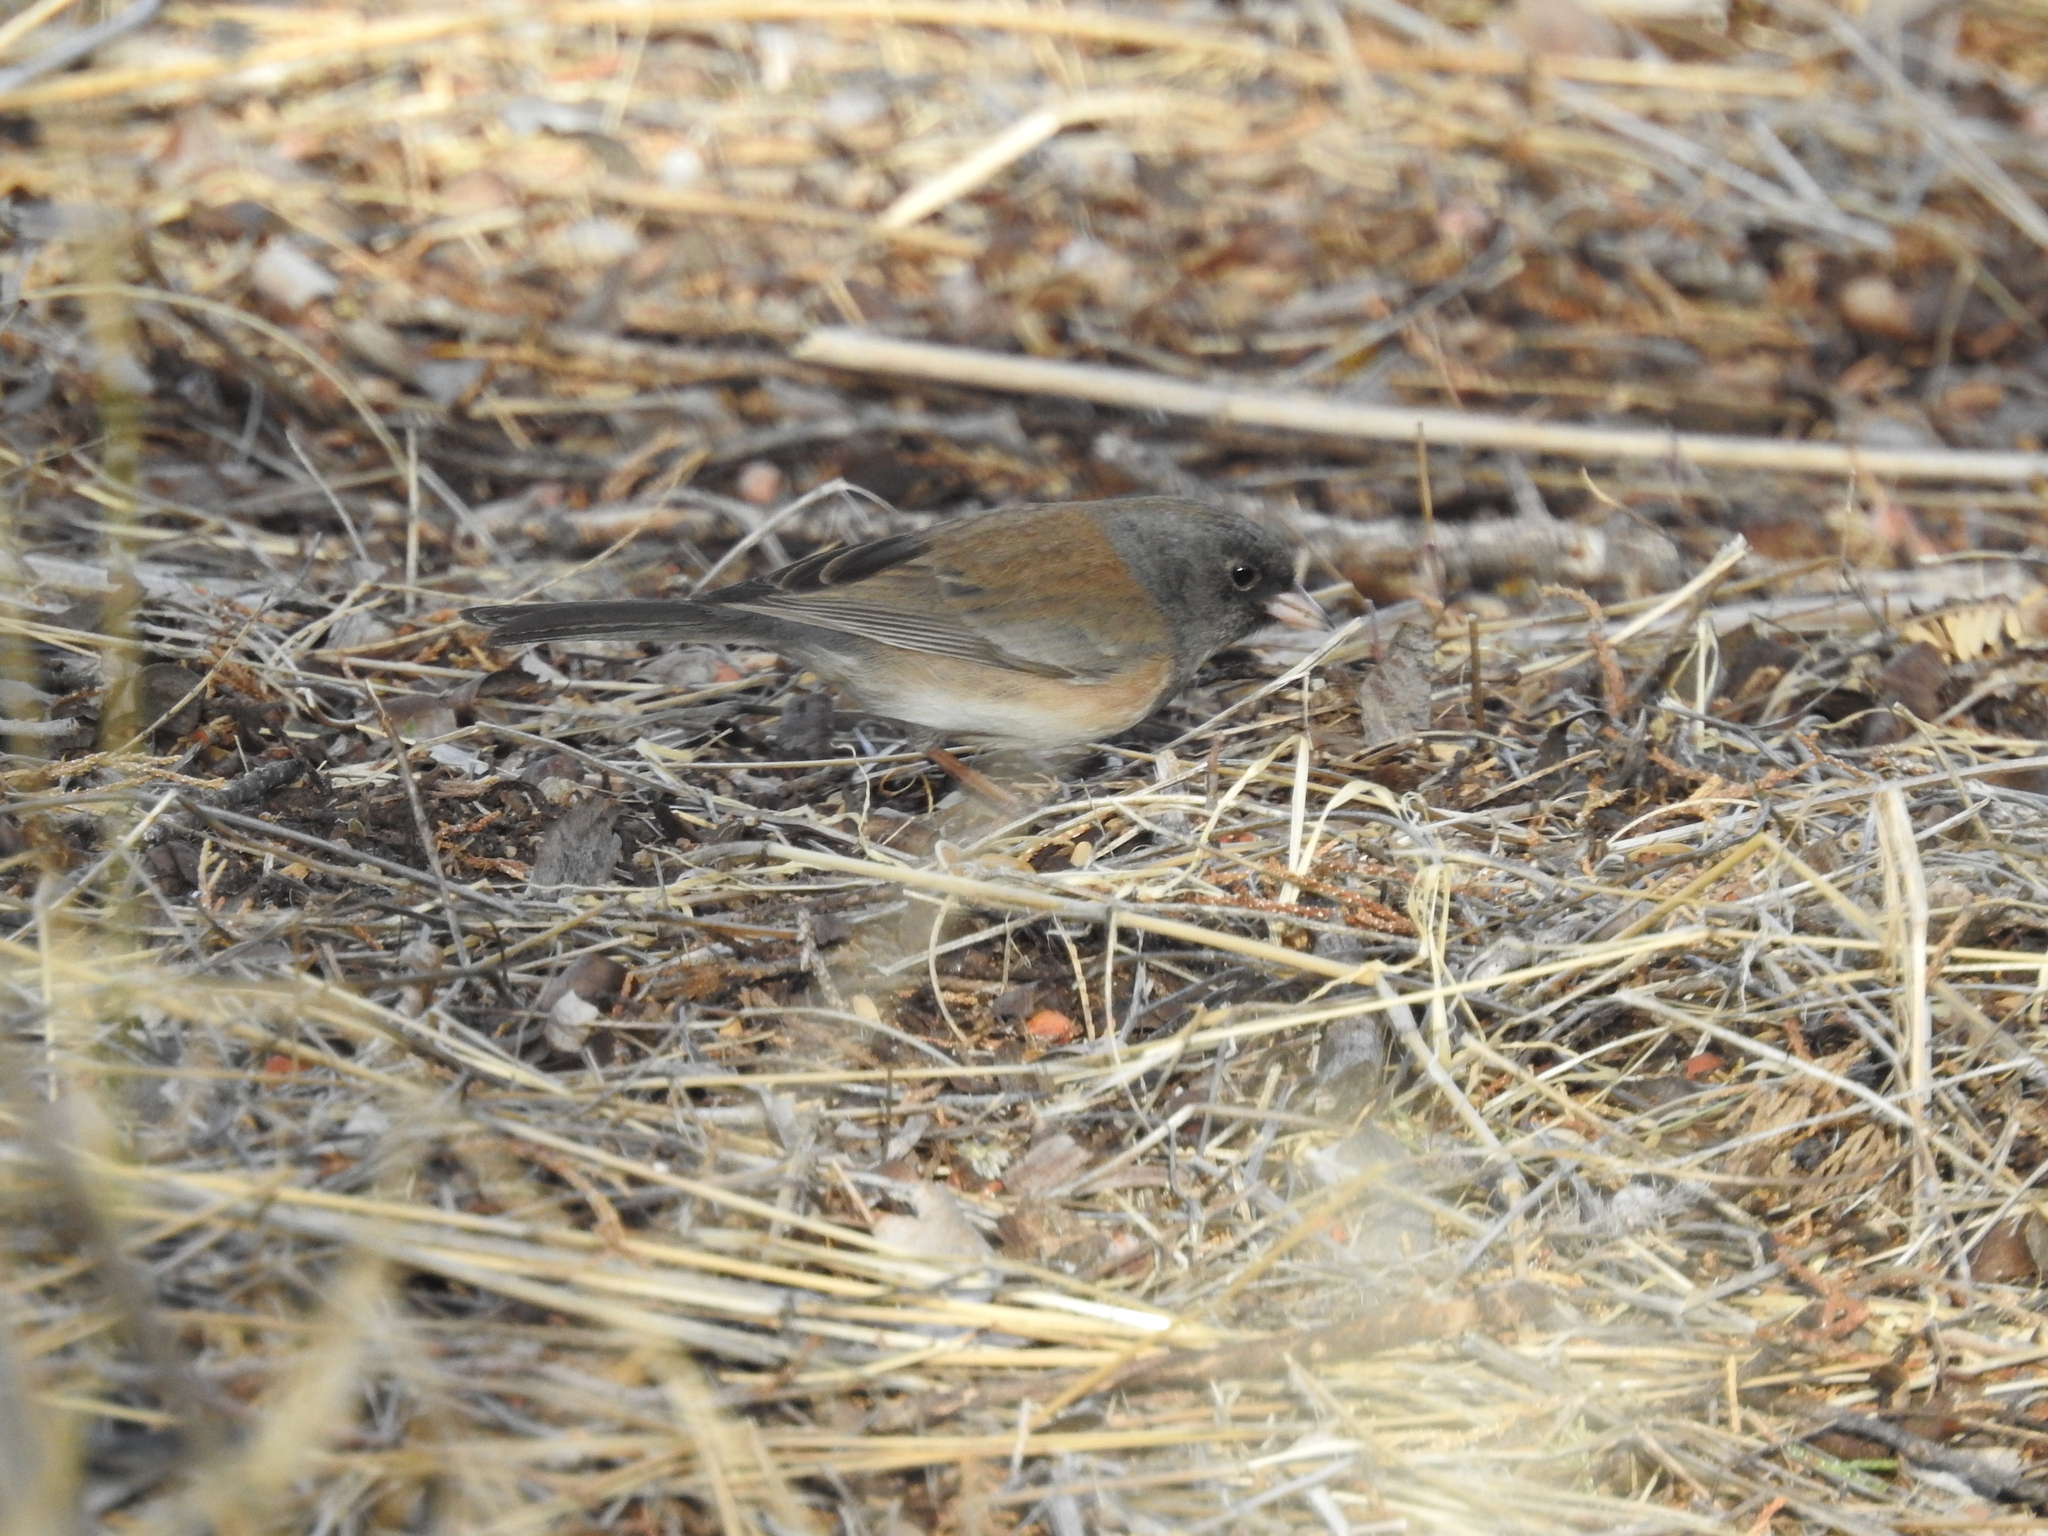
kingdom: Animalia
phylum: Chordata
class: Aves
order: Passeriformes
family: Passerellidae
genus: Junco
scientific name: Junco hyemalis
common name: Dark-eyed junco
